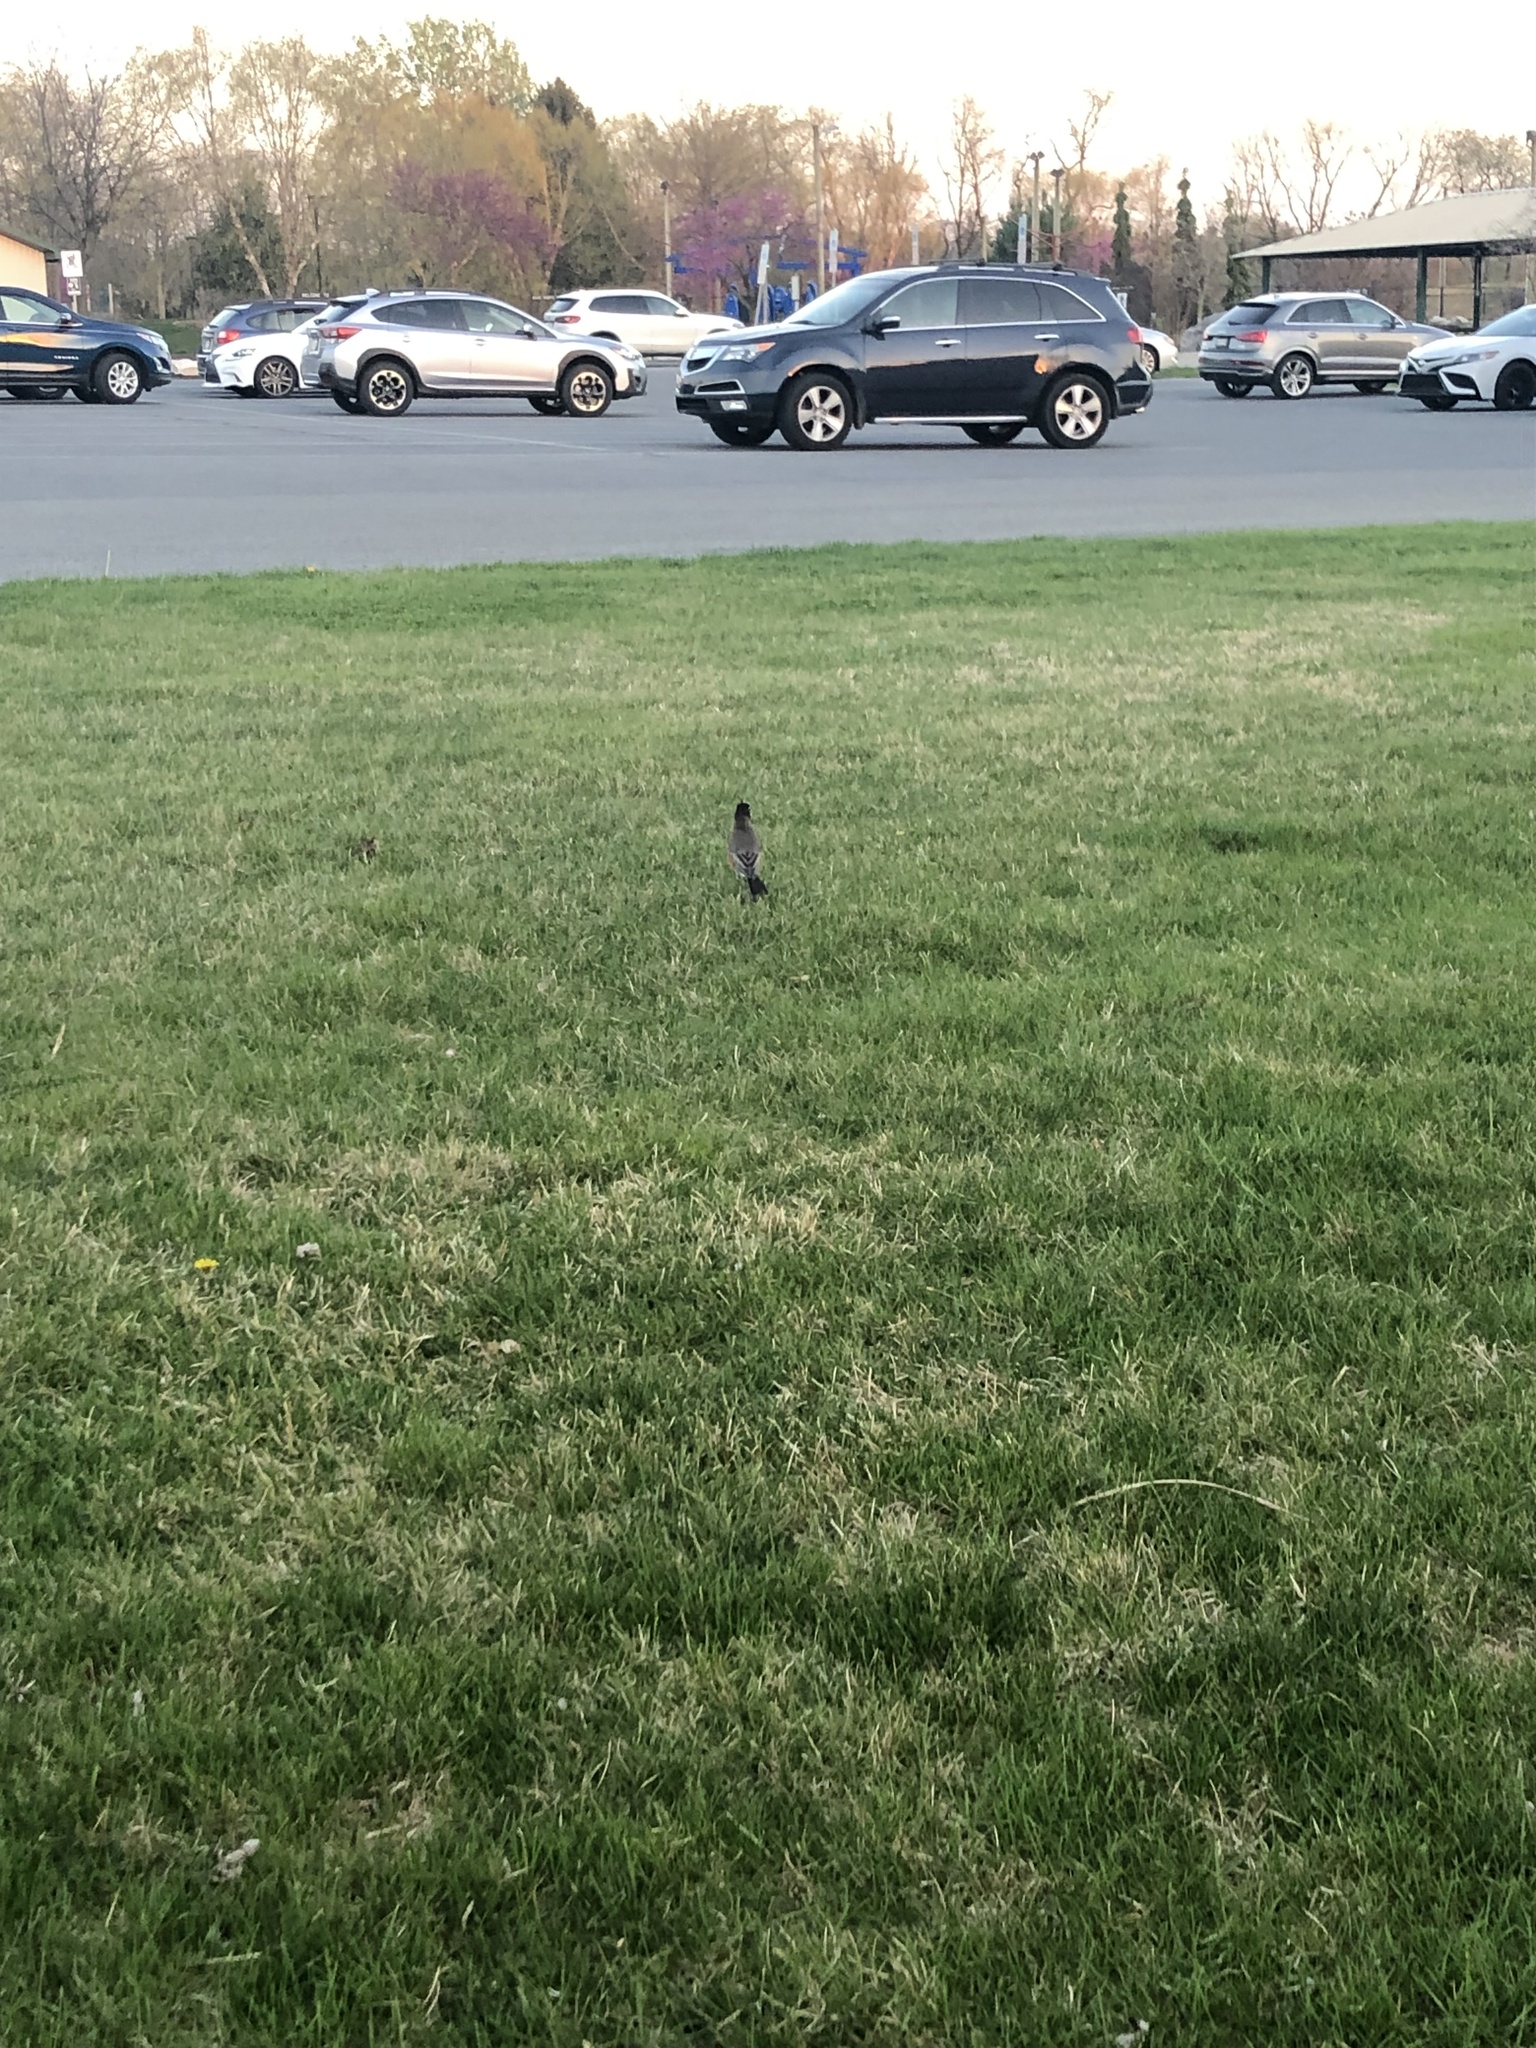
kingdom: Animalia
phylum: Chordata
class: Aves
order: Passeriformes
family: Turdidae
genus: Turdus
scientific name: Turdus migratorius
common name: American robin
